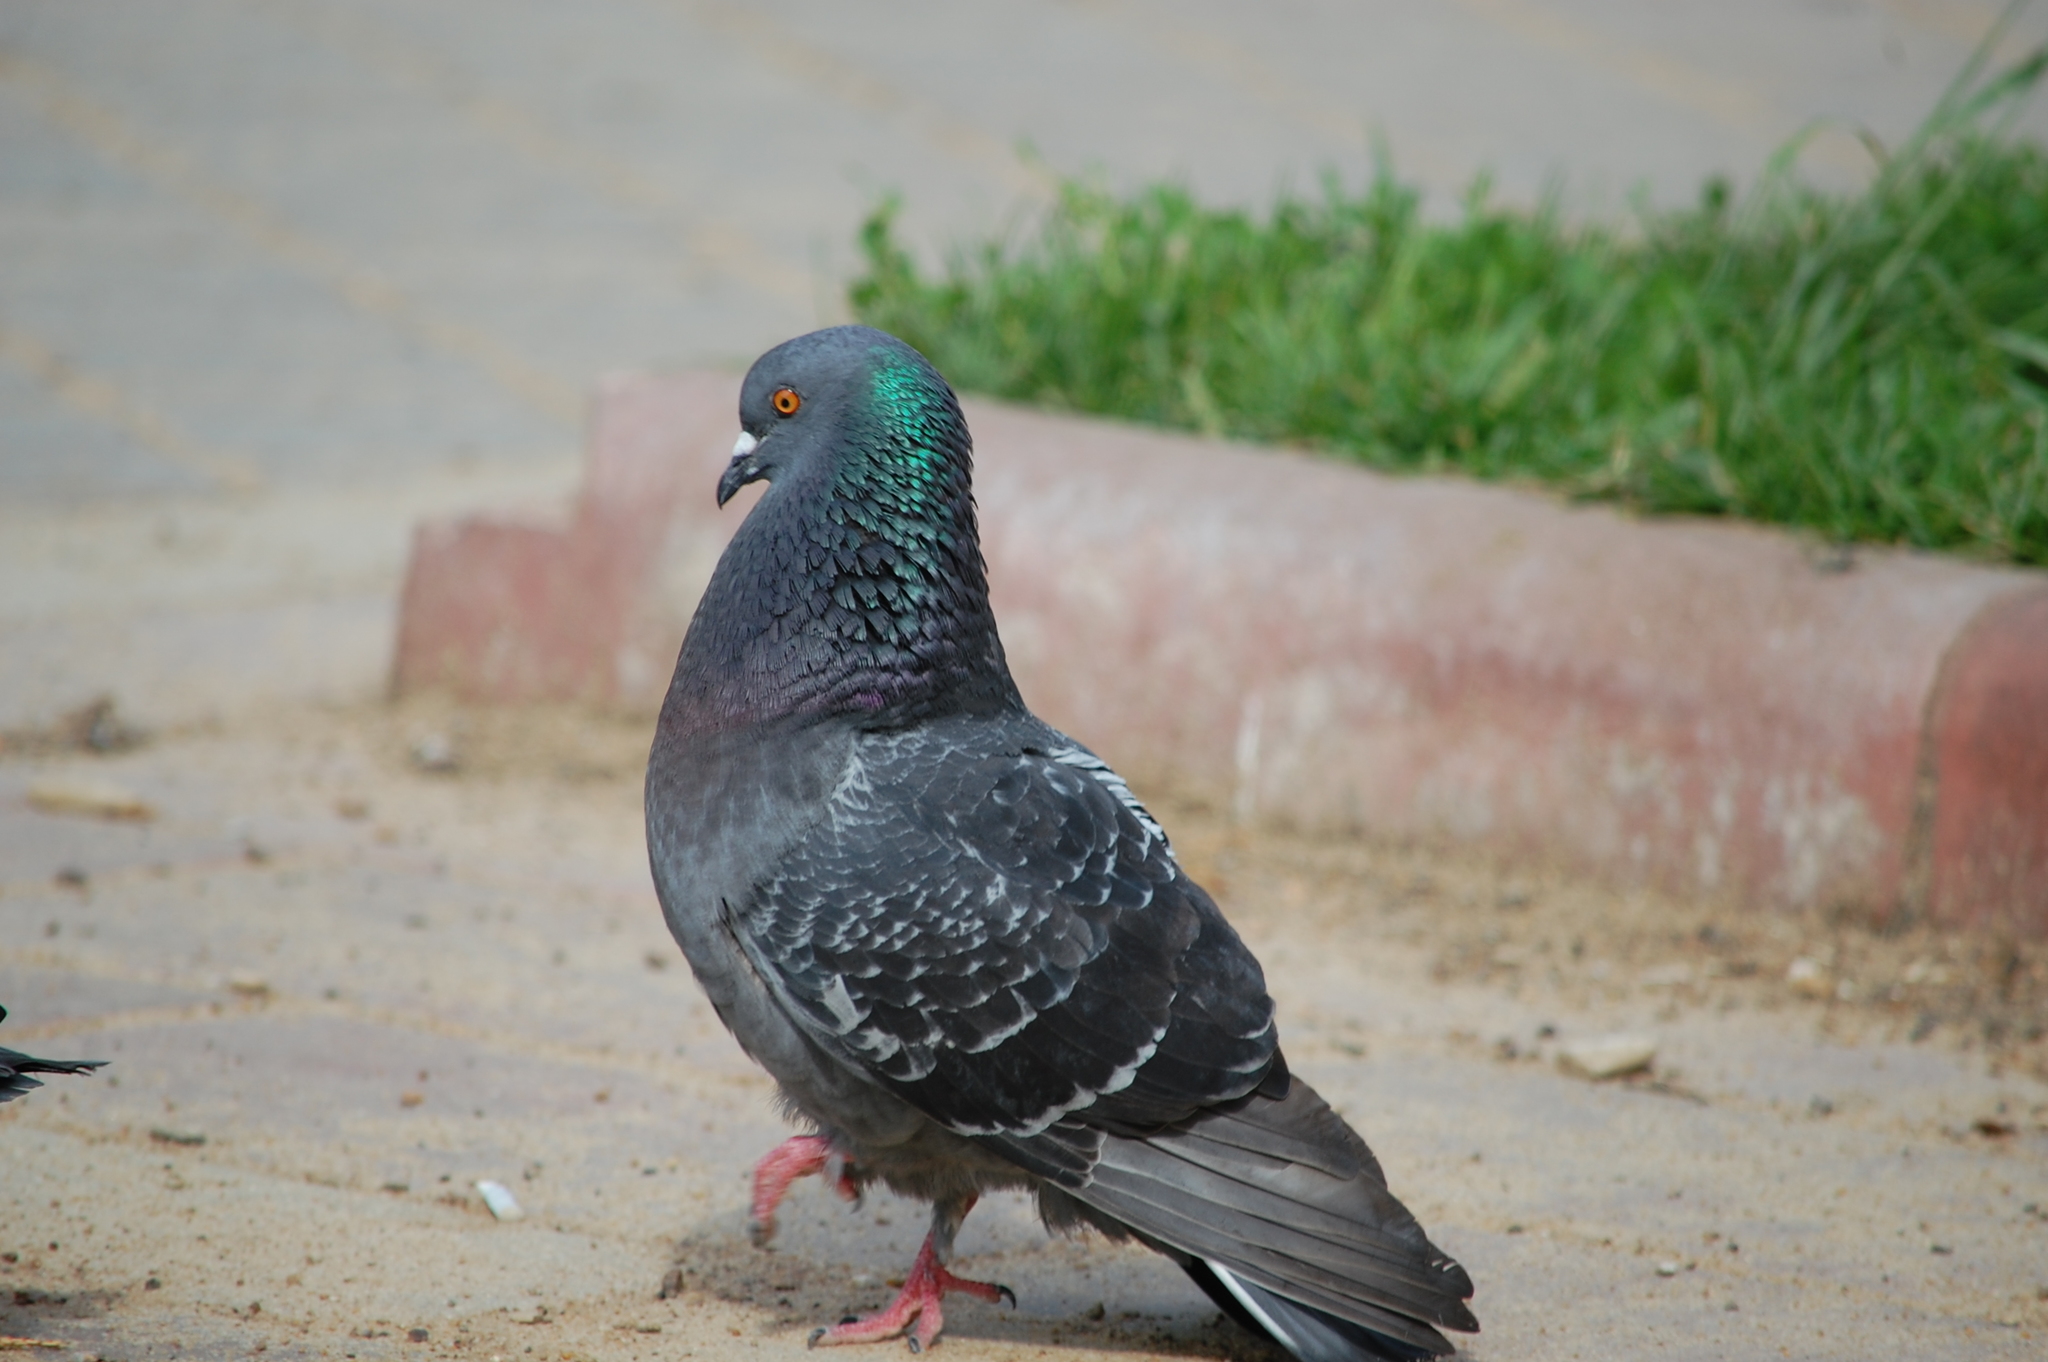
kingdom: Animalia
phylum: Chordata
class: Aves
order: Columbiformes
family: Columbidae
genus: Columba
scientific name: Columba livia
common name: Rock pigeon
